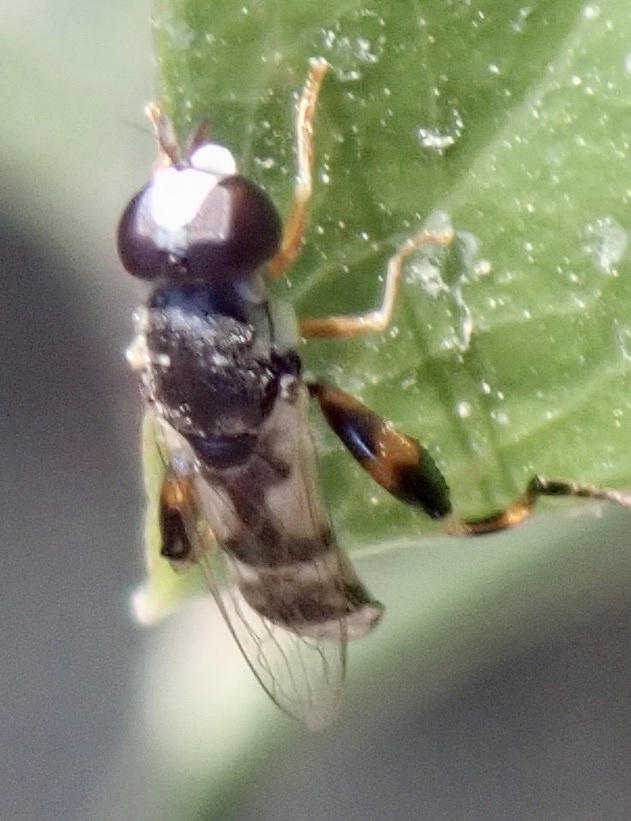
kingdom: Animalia
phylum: Arthropoda
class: Insecta
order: Diptera
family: Syrphidae
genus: Syritta
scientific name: Syritta flaviventris
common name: Syrphid fly
